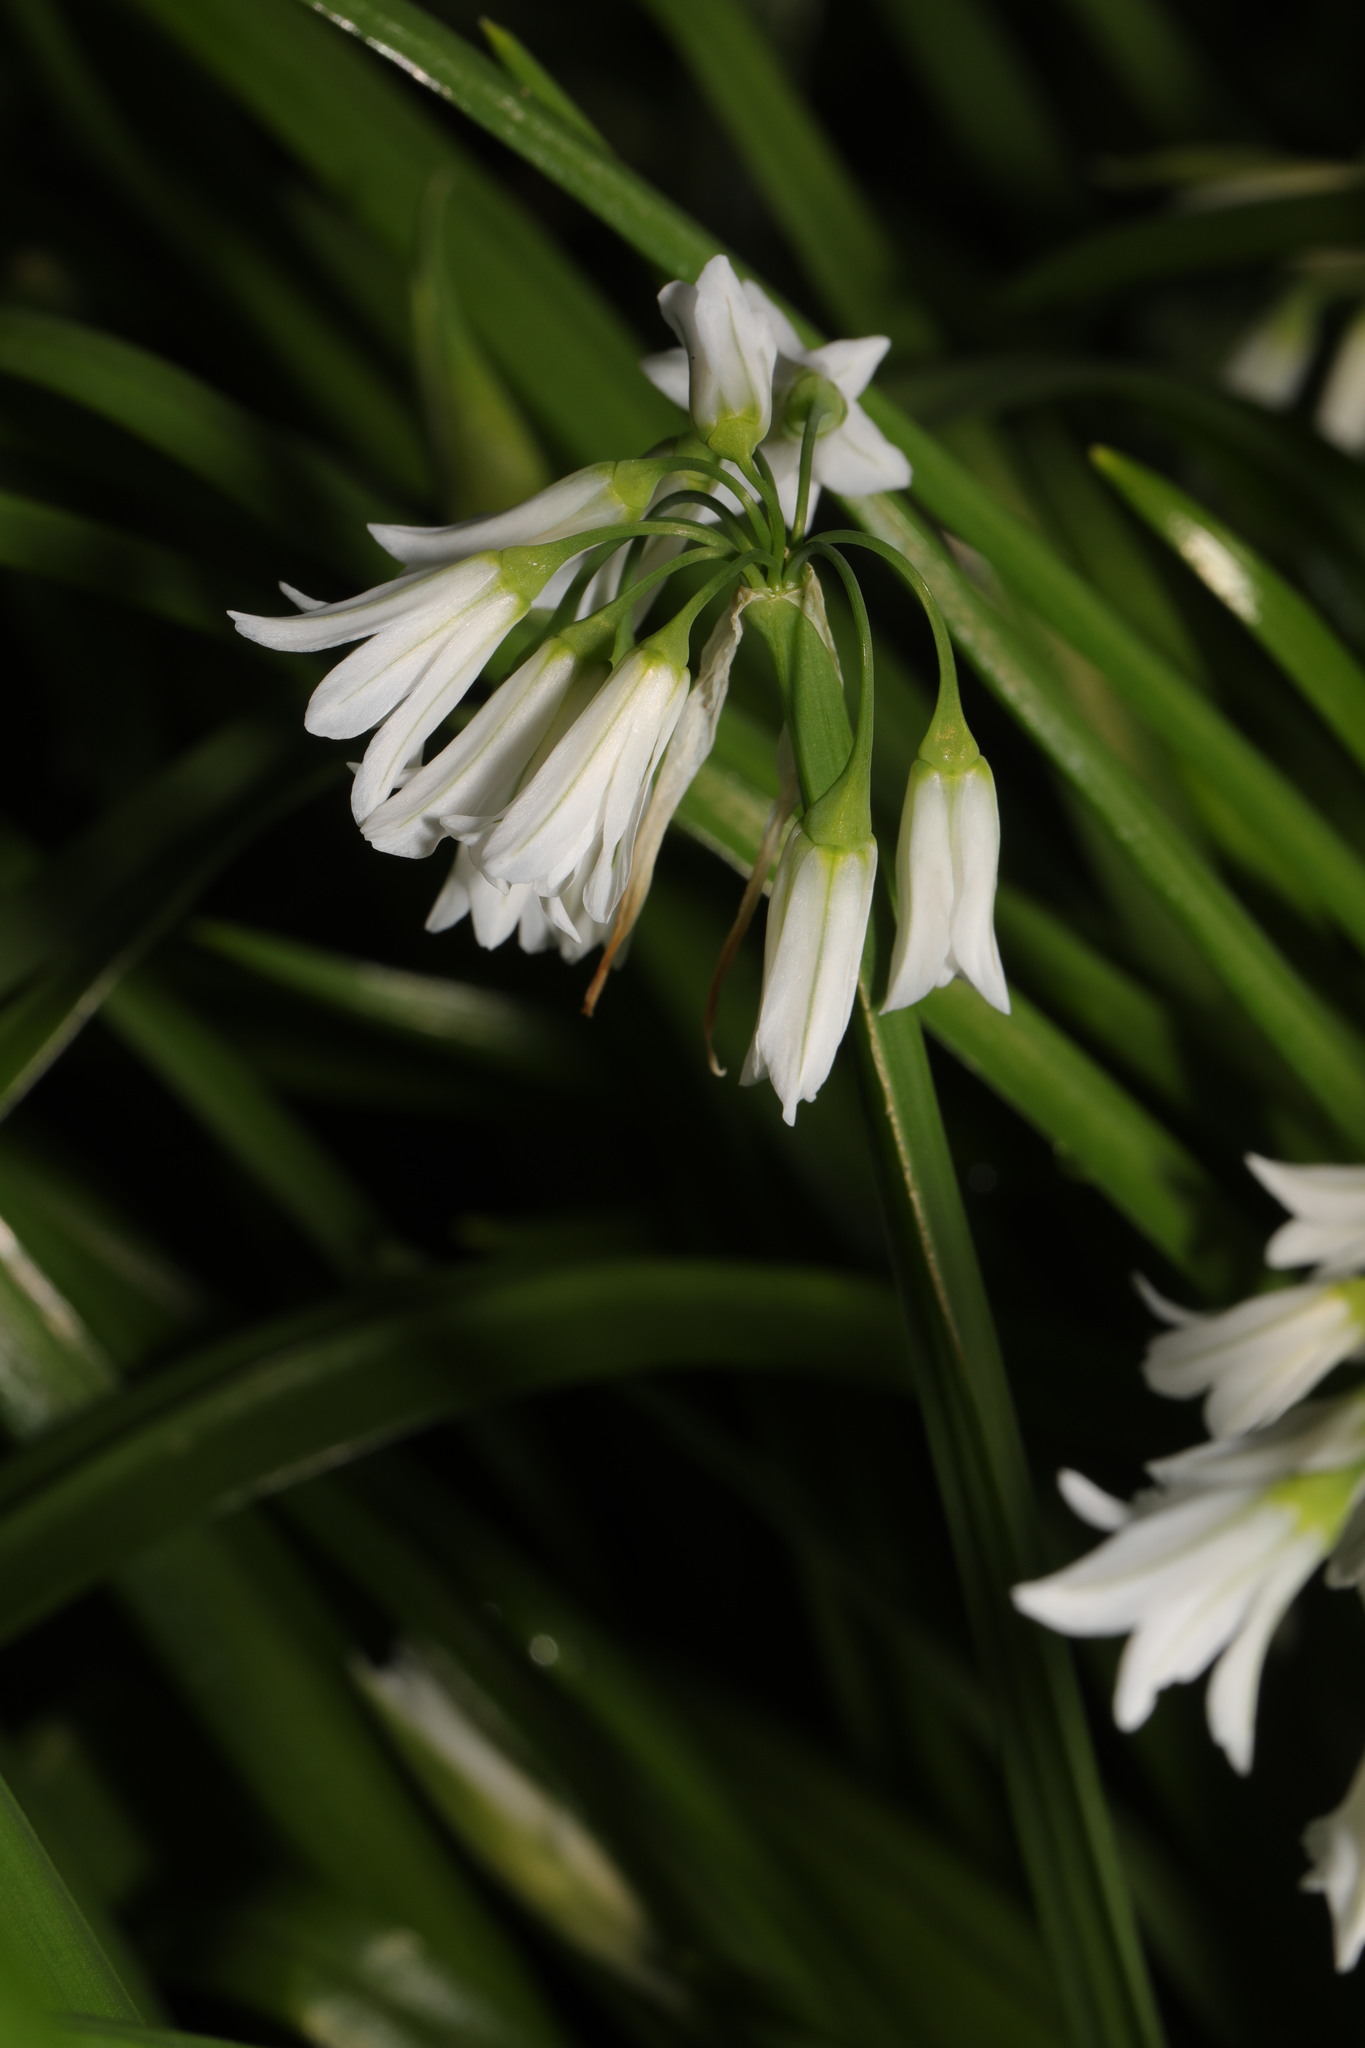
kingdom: Plantae
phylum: Tracheophyta
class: Liliopsida
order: Asparagales
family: Amaryllidaceae
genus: Allium
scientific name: Allium triquetrum
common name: Three-cornered garlic
